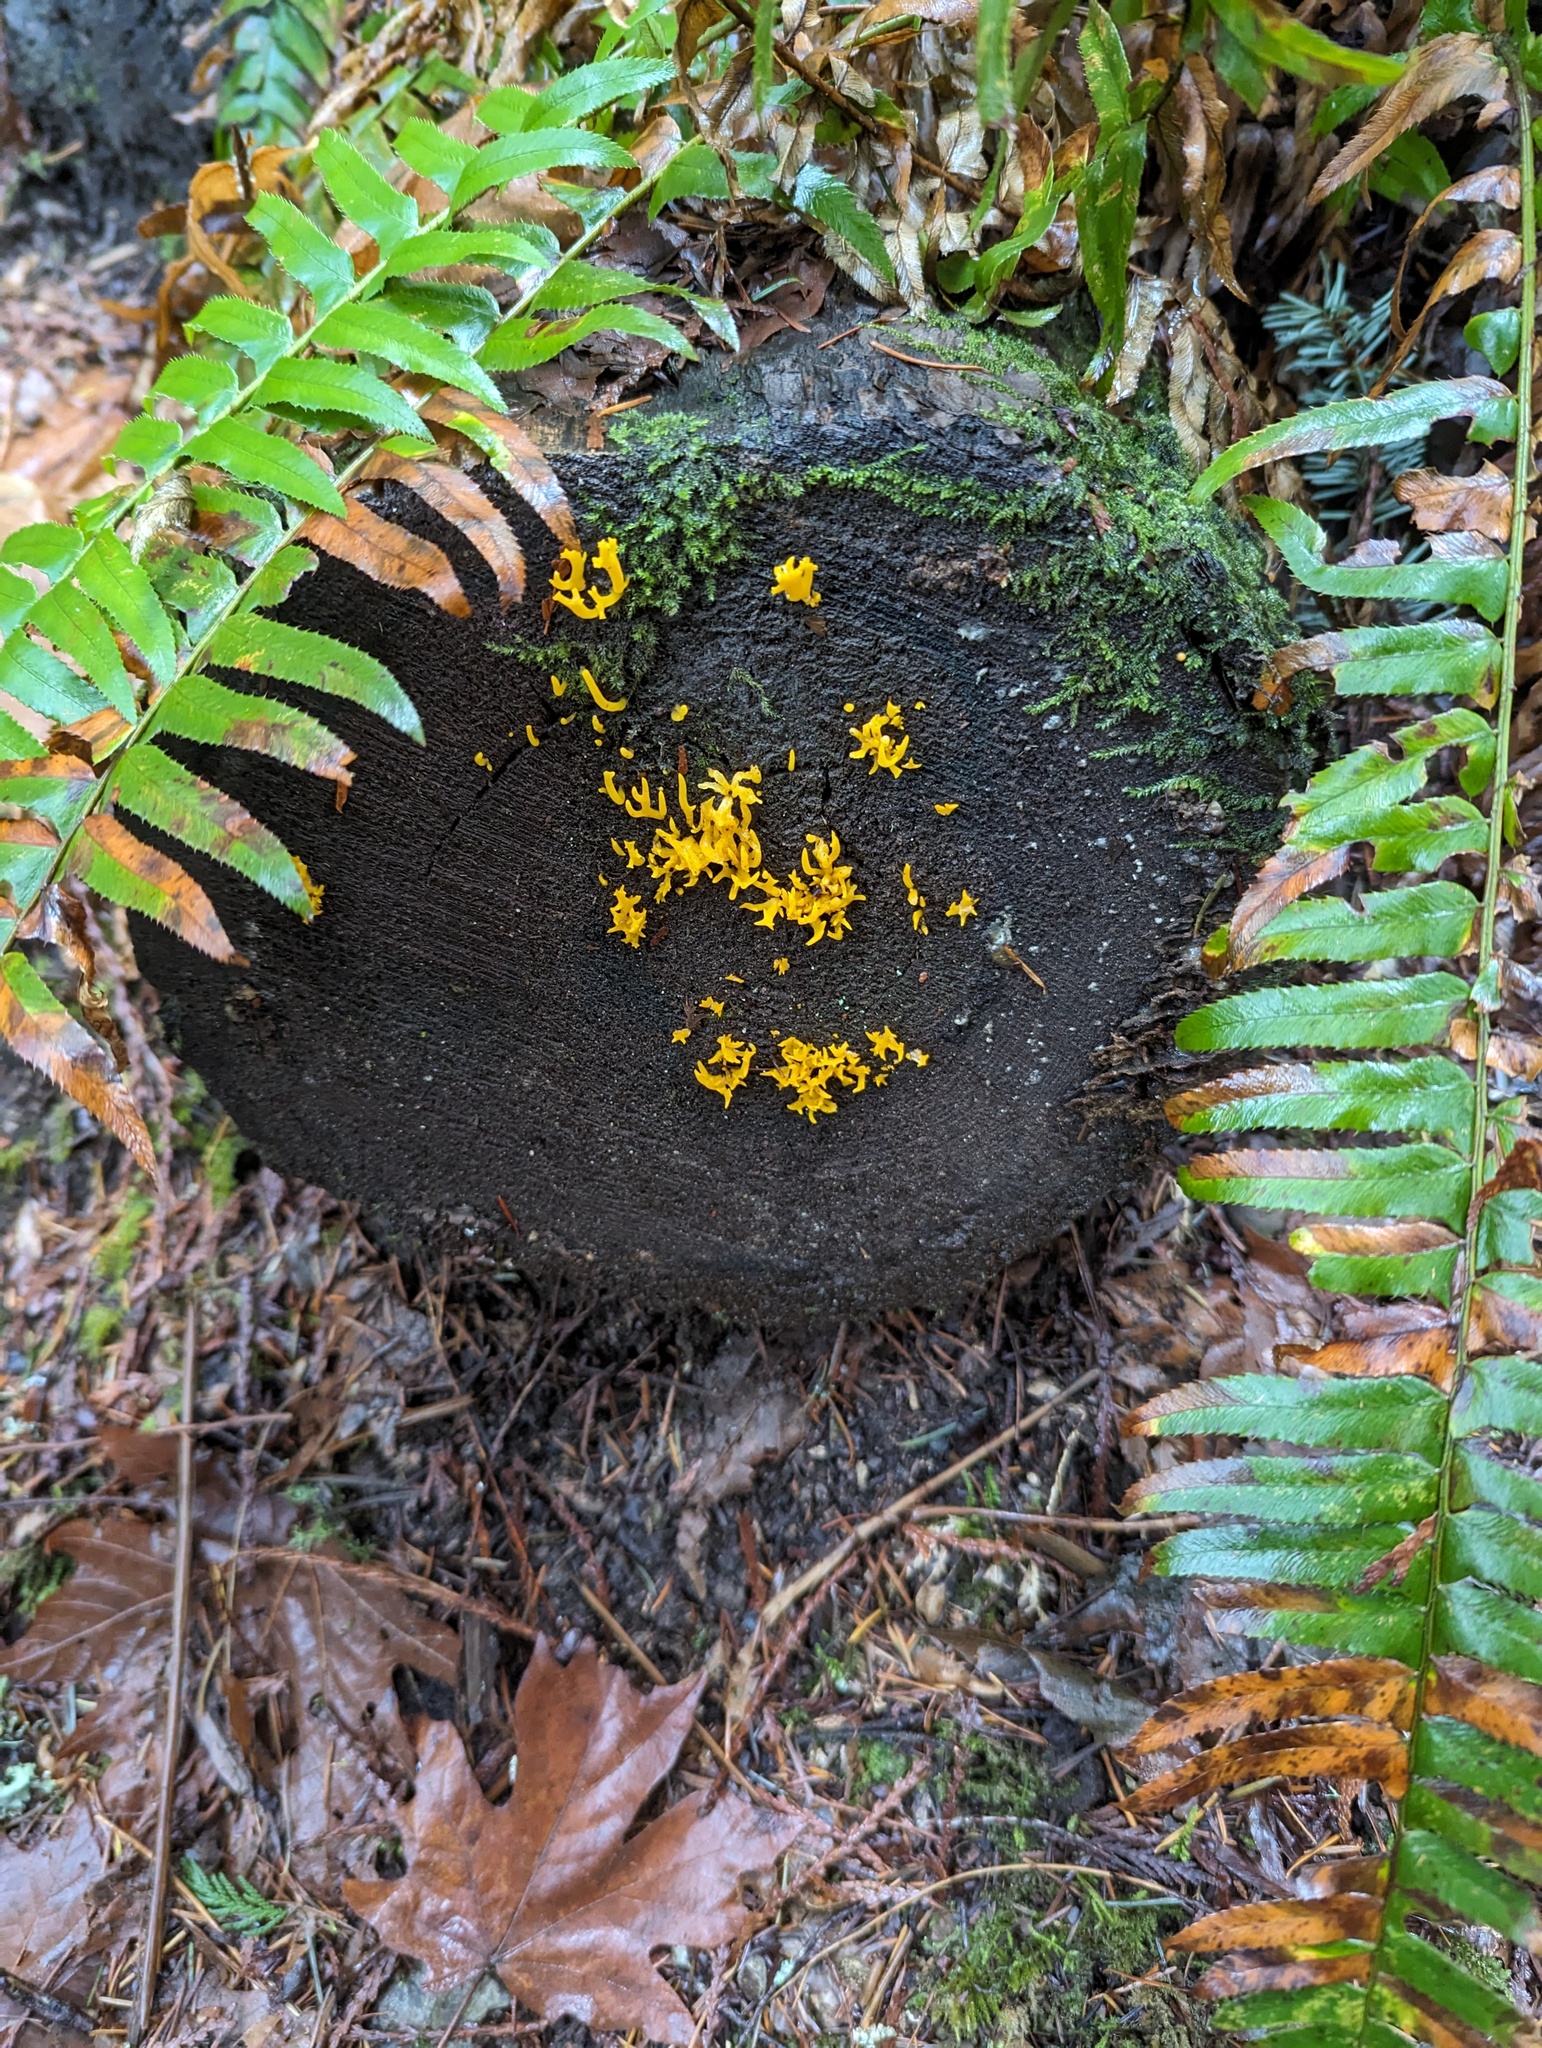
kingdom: Fungi
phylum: Basidiomycota
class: Dacrymycetes
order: Dacrymycetales
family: Dacrymycetaceae
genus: Calocera
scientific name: Calocera cornea
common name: Small stagshorn
